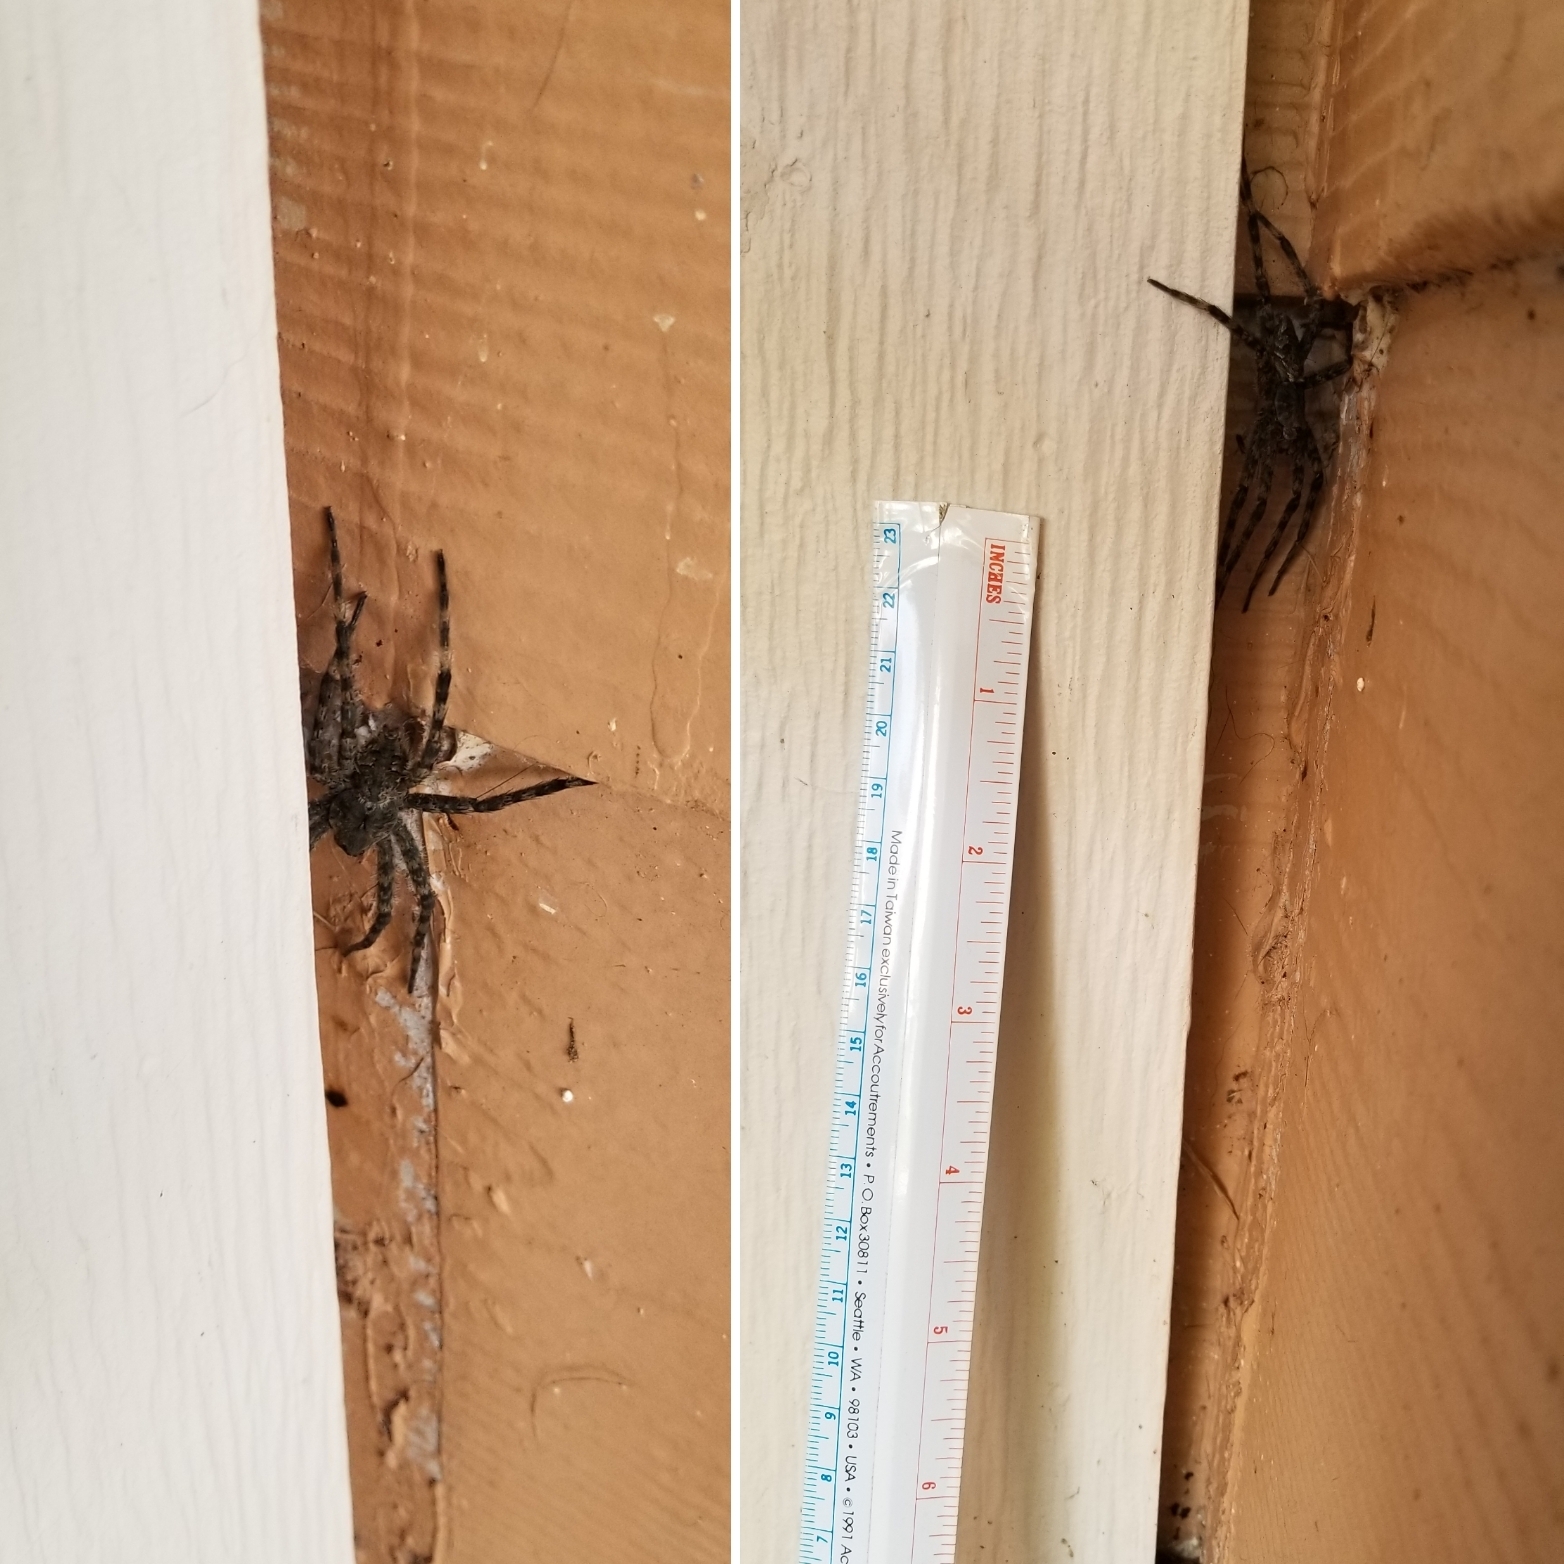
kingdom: Animalia
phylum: Arthropoda
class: Arachnida
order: Araneae
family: Pisauridae
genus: Dolomedes
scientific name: Dolomedes albineus
